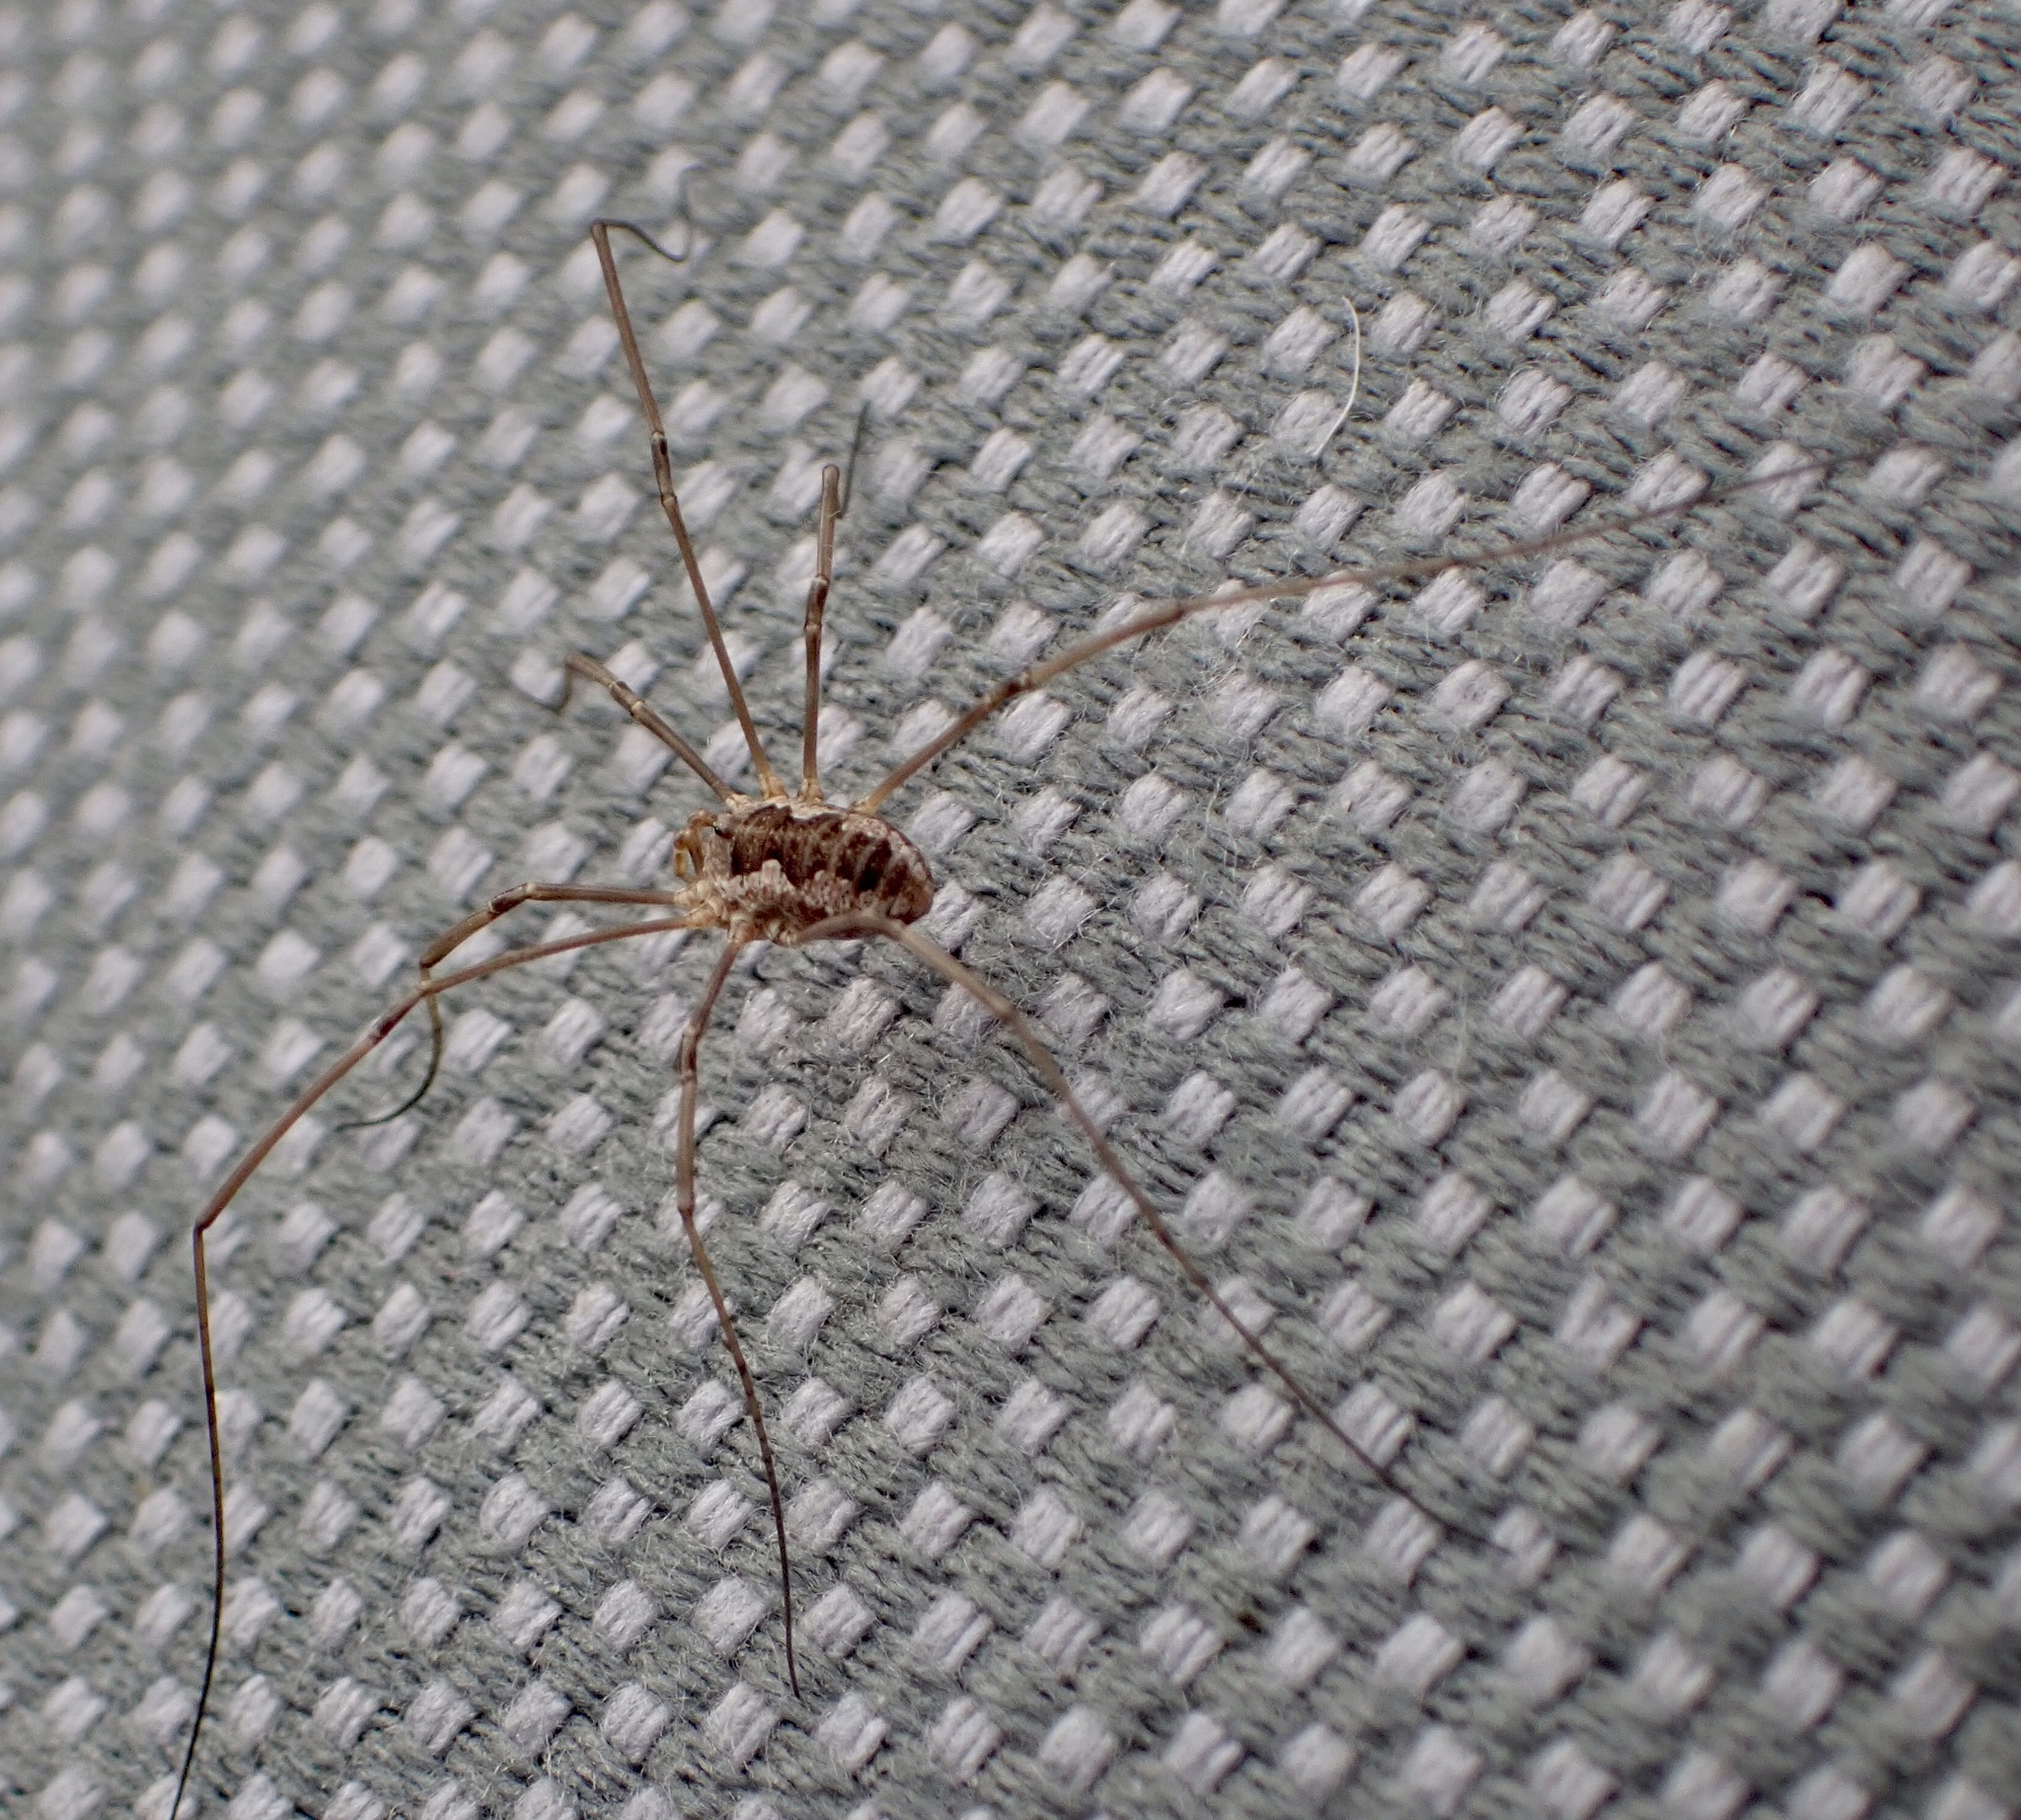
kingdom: Animalia
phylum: Arthropoda
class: Arachnida
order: Opiliones
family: Phalangiidae
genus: Phalangium
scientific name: Phalangium opilio
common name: Daddy longleg
